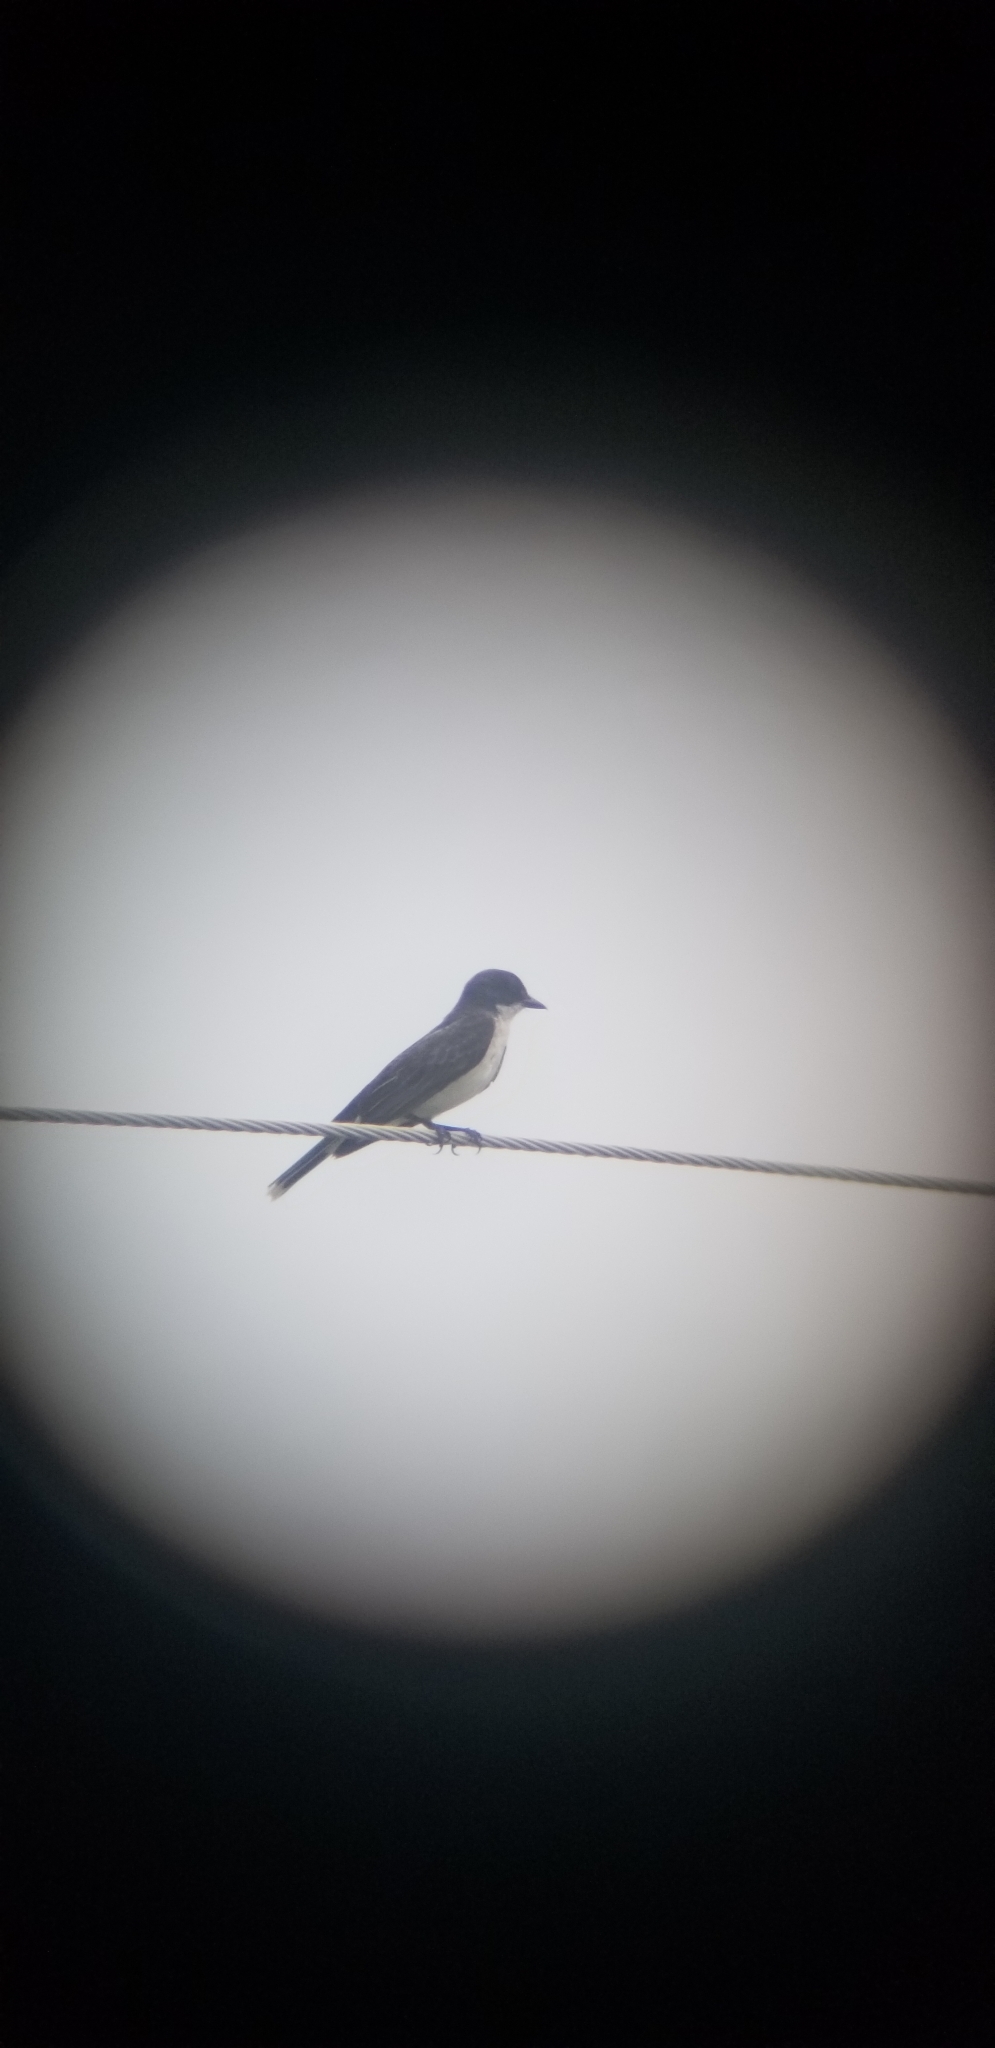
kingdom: Animalia
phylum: Chordata
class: Aves
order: Passeriformes
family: Tyrannidae
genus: Tyrannus
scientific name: Tyrannus tyrannus
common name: Eastern kingbird
